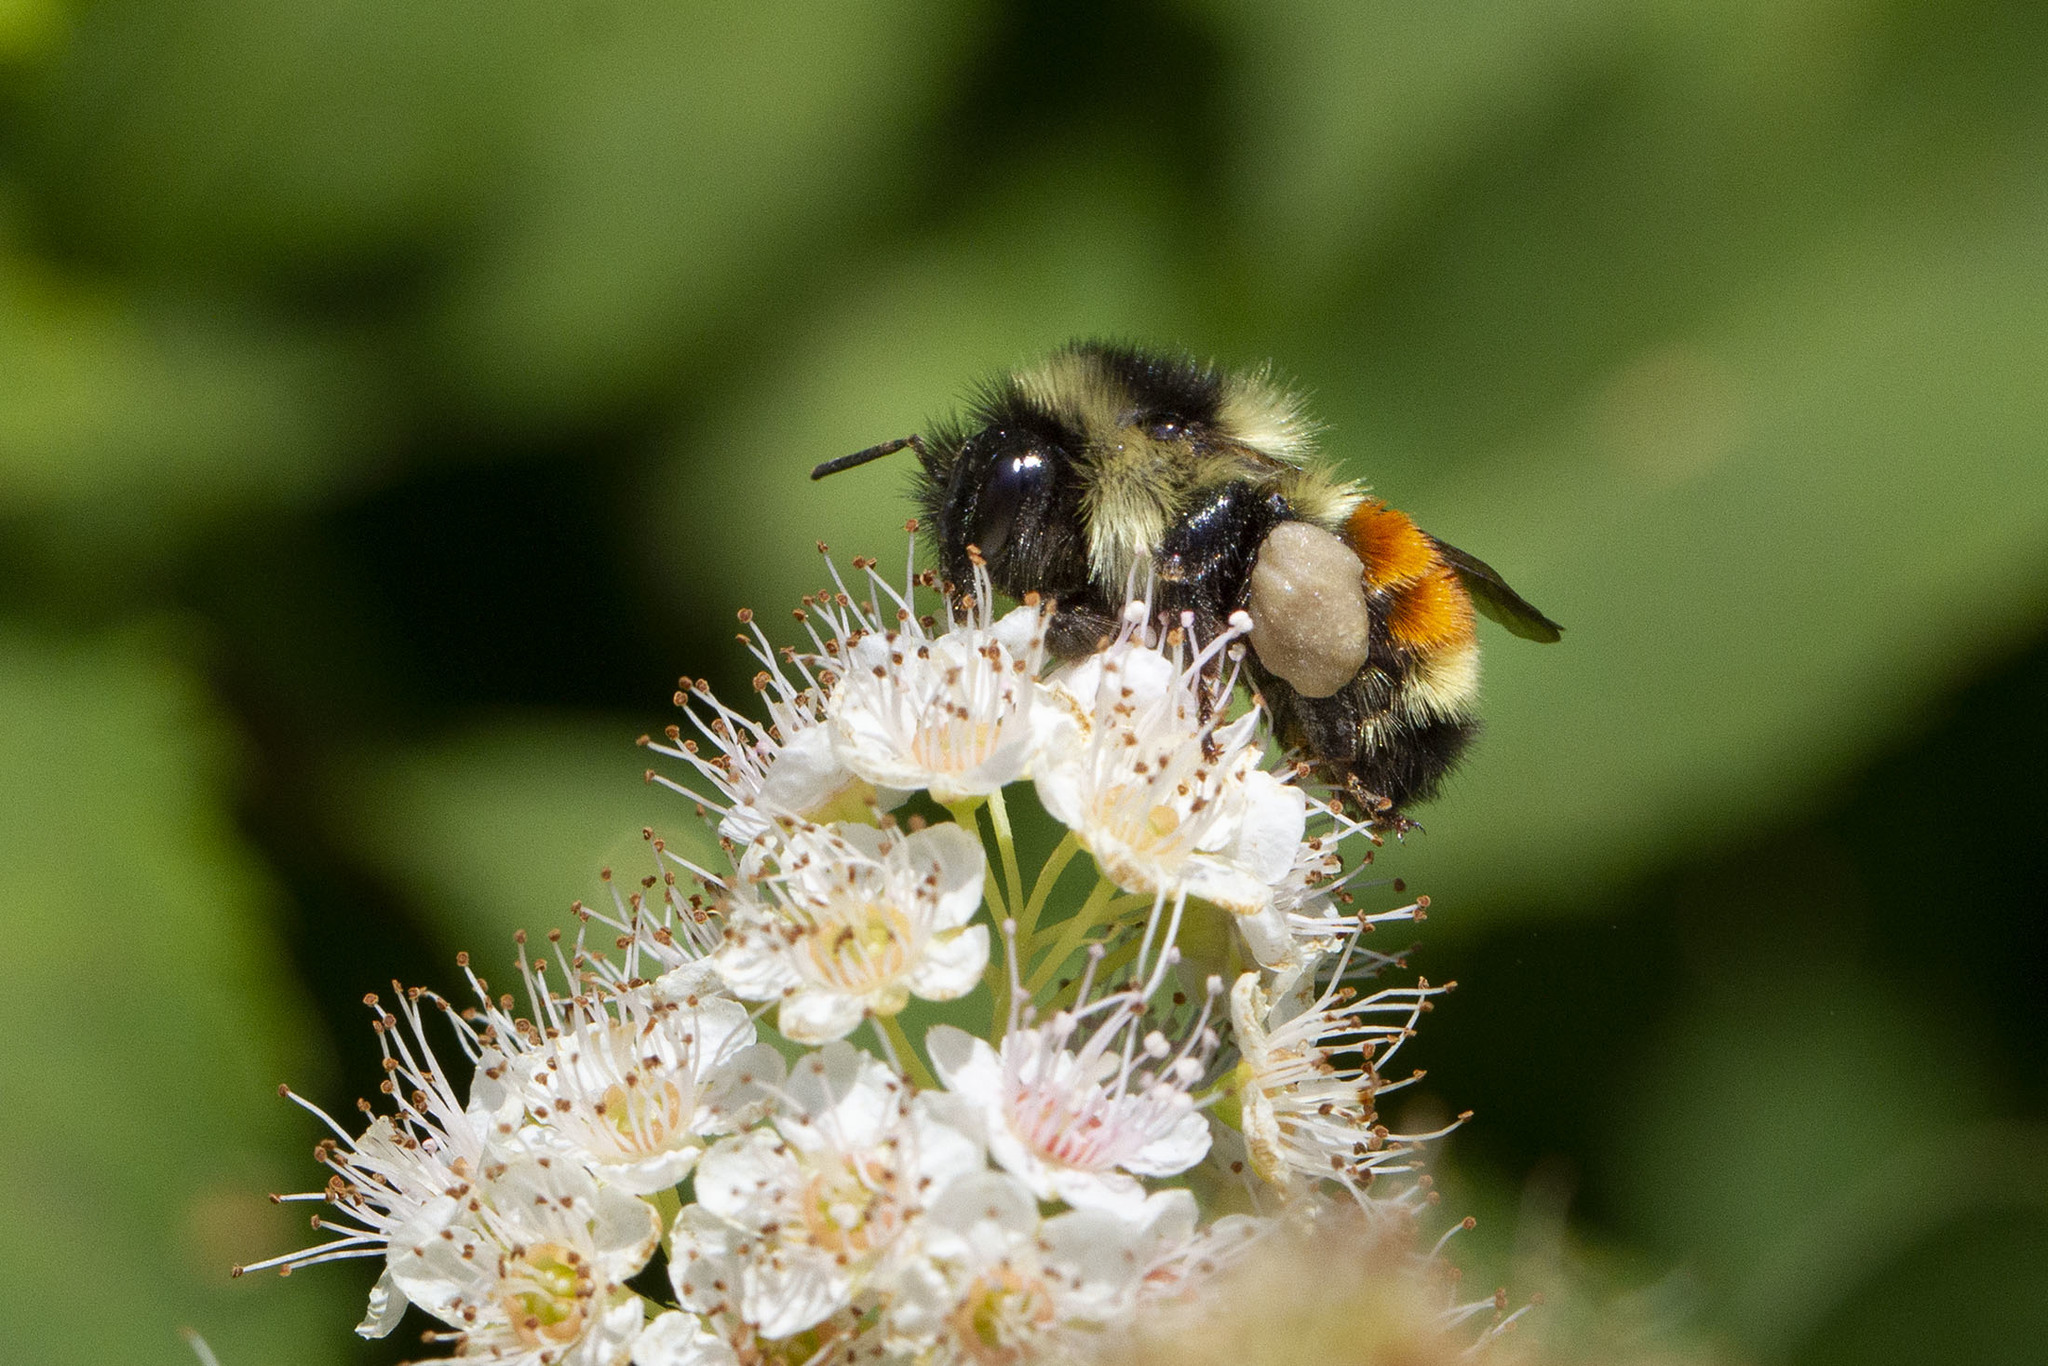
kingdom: Animalia
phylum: Arthropoda
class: Insecta
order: Hymenoptera
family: Apidae
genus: Bombus
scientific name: Bombus ternarius
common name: Tri-colored bumble bee
